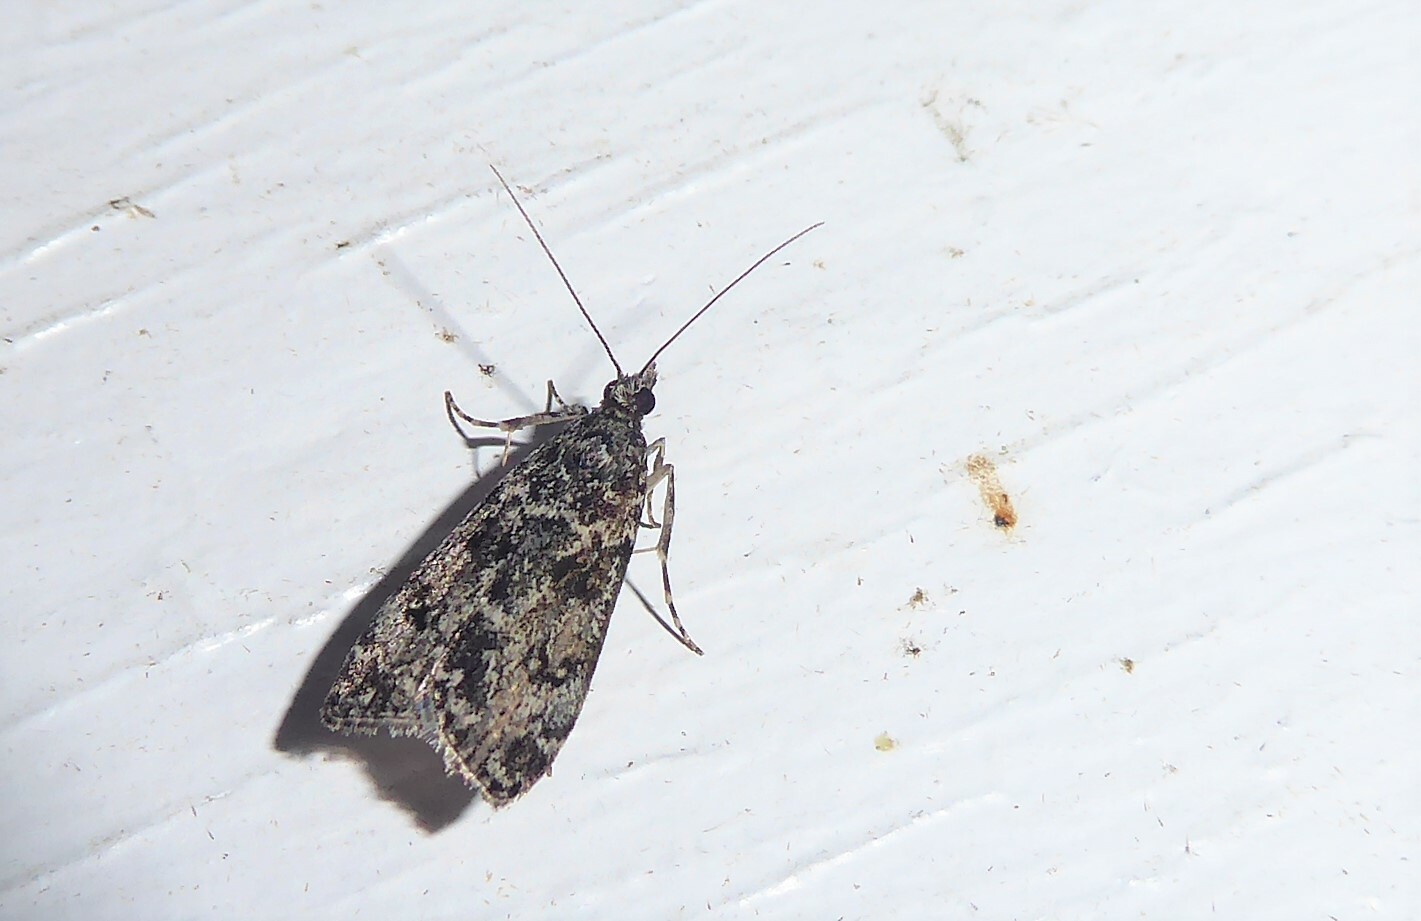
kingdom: Animalia
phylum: Arthropoda
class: Insecta
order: Lepidoptera
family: Crambidae
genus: Eudonia
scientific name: Eudonia philerga
